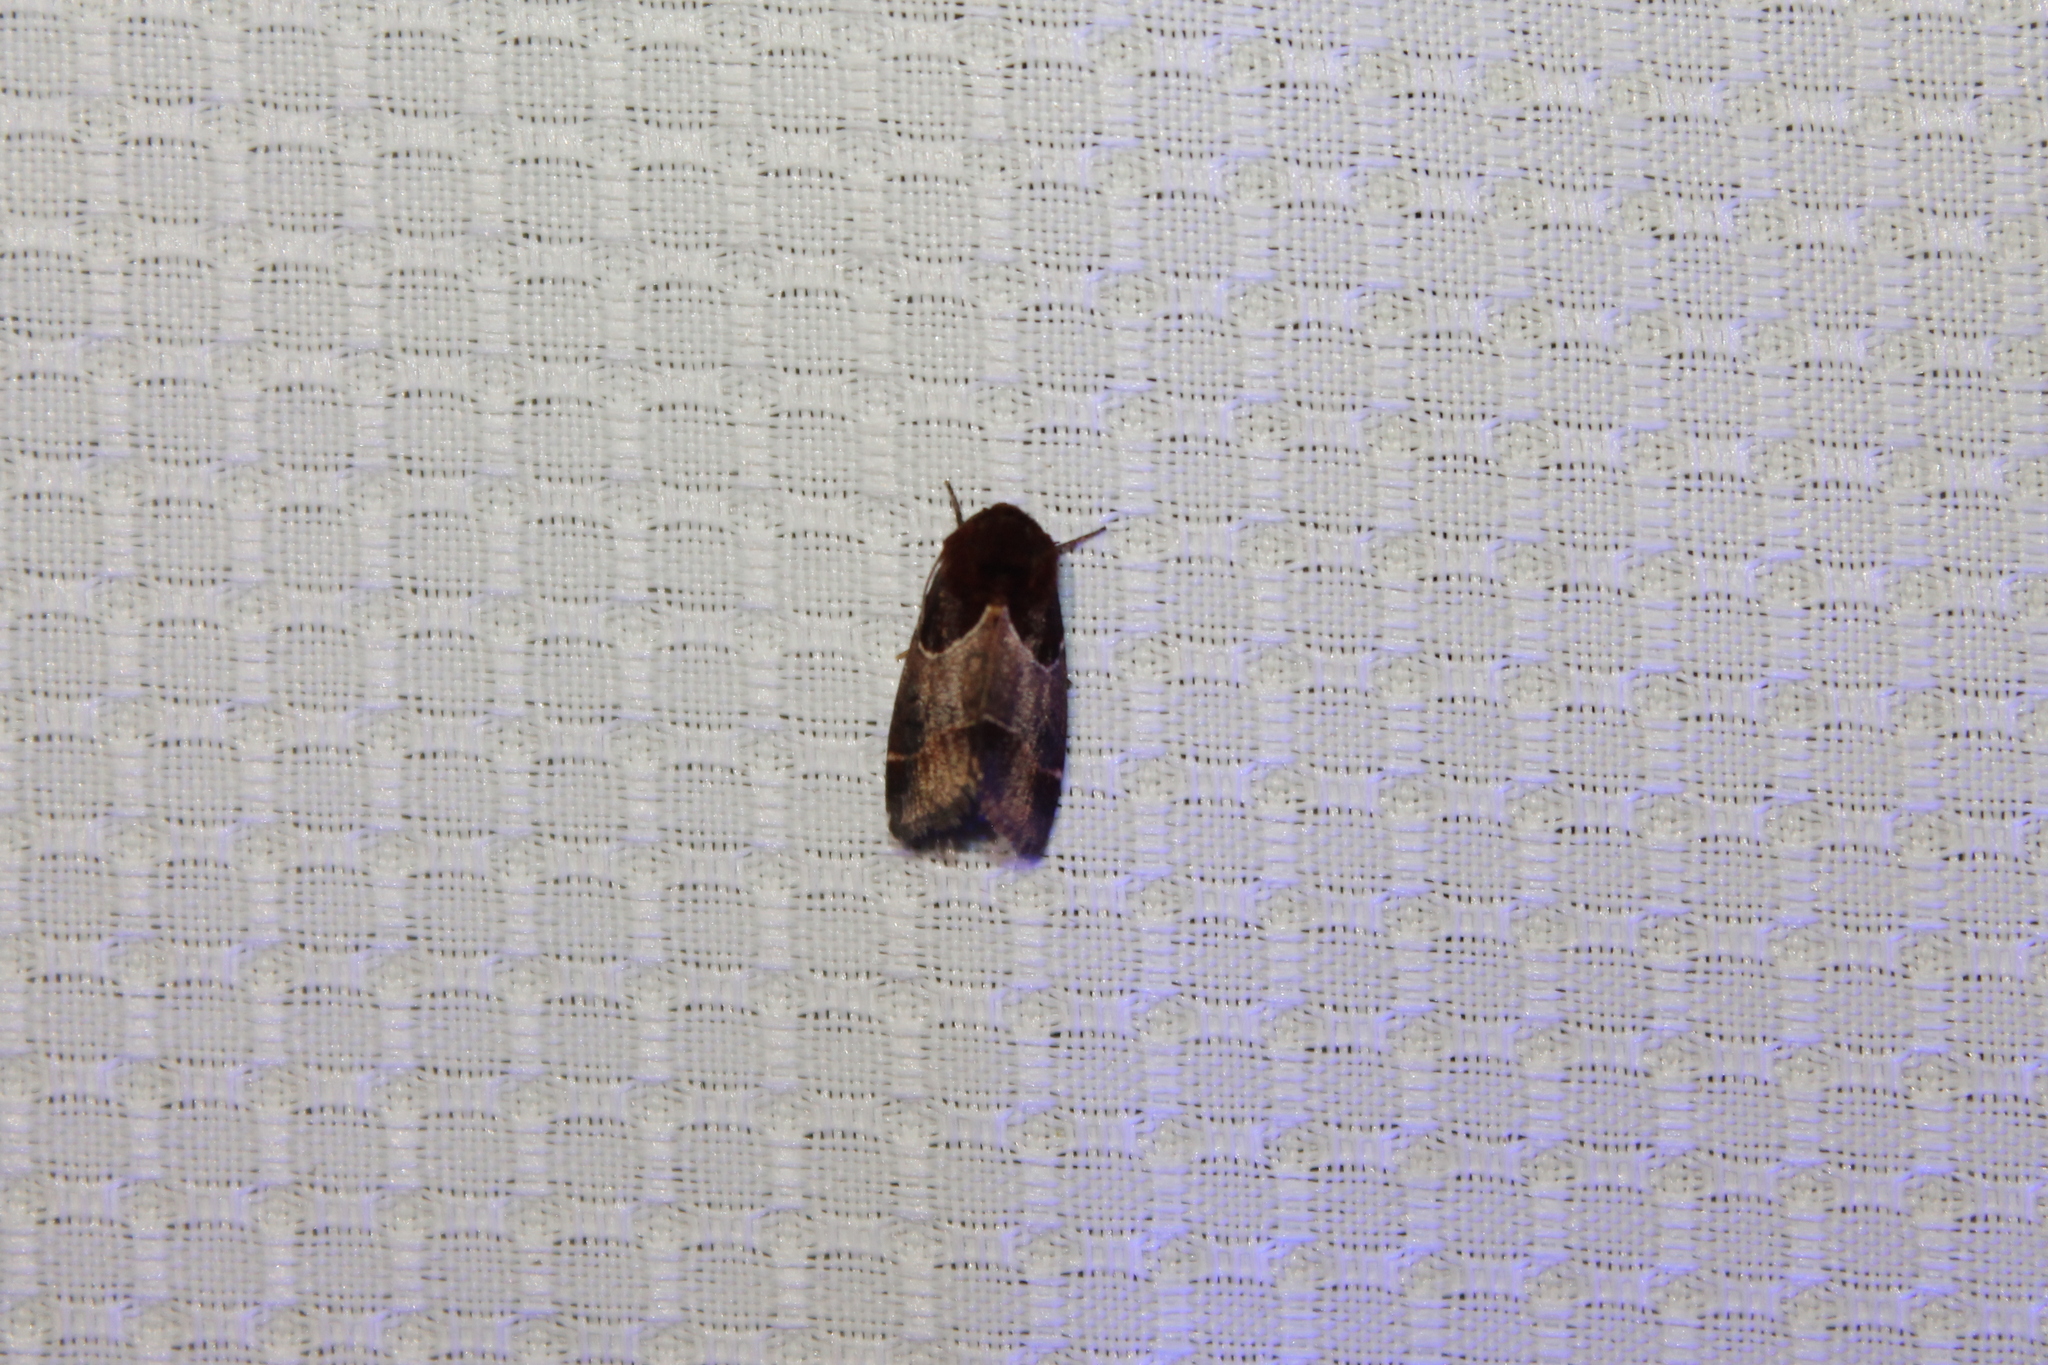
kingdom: Animalia
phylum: Arthropoda
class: Insecta
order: Lepidoptera
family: Noctuidae
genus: Schinia
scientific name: Schinia arcigera
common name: Arcigera flower moth
